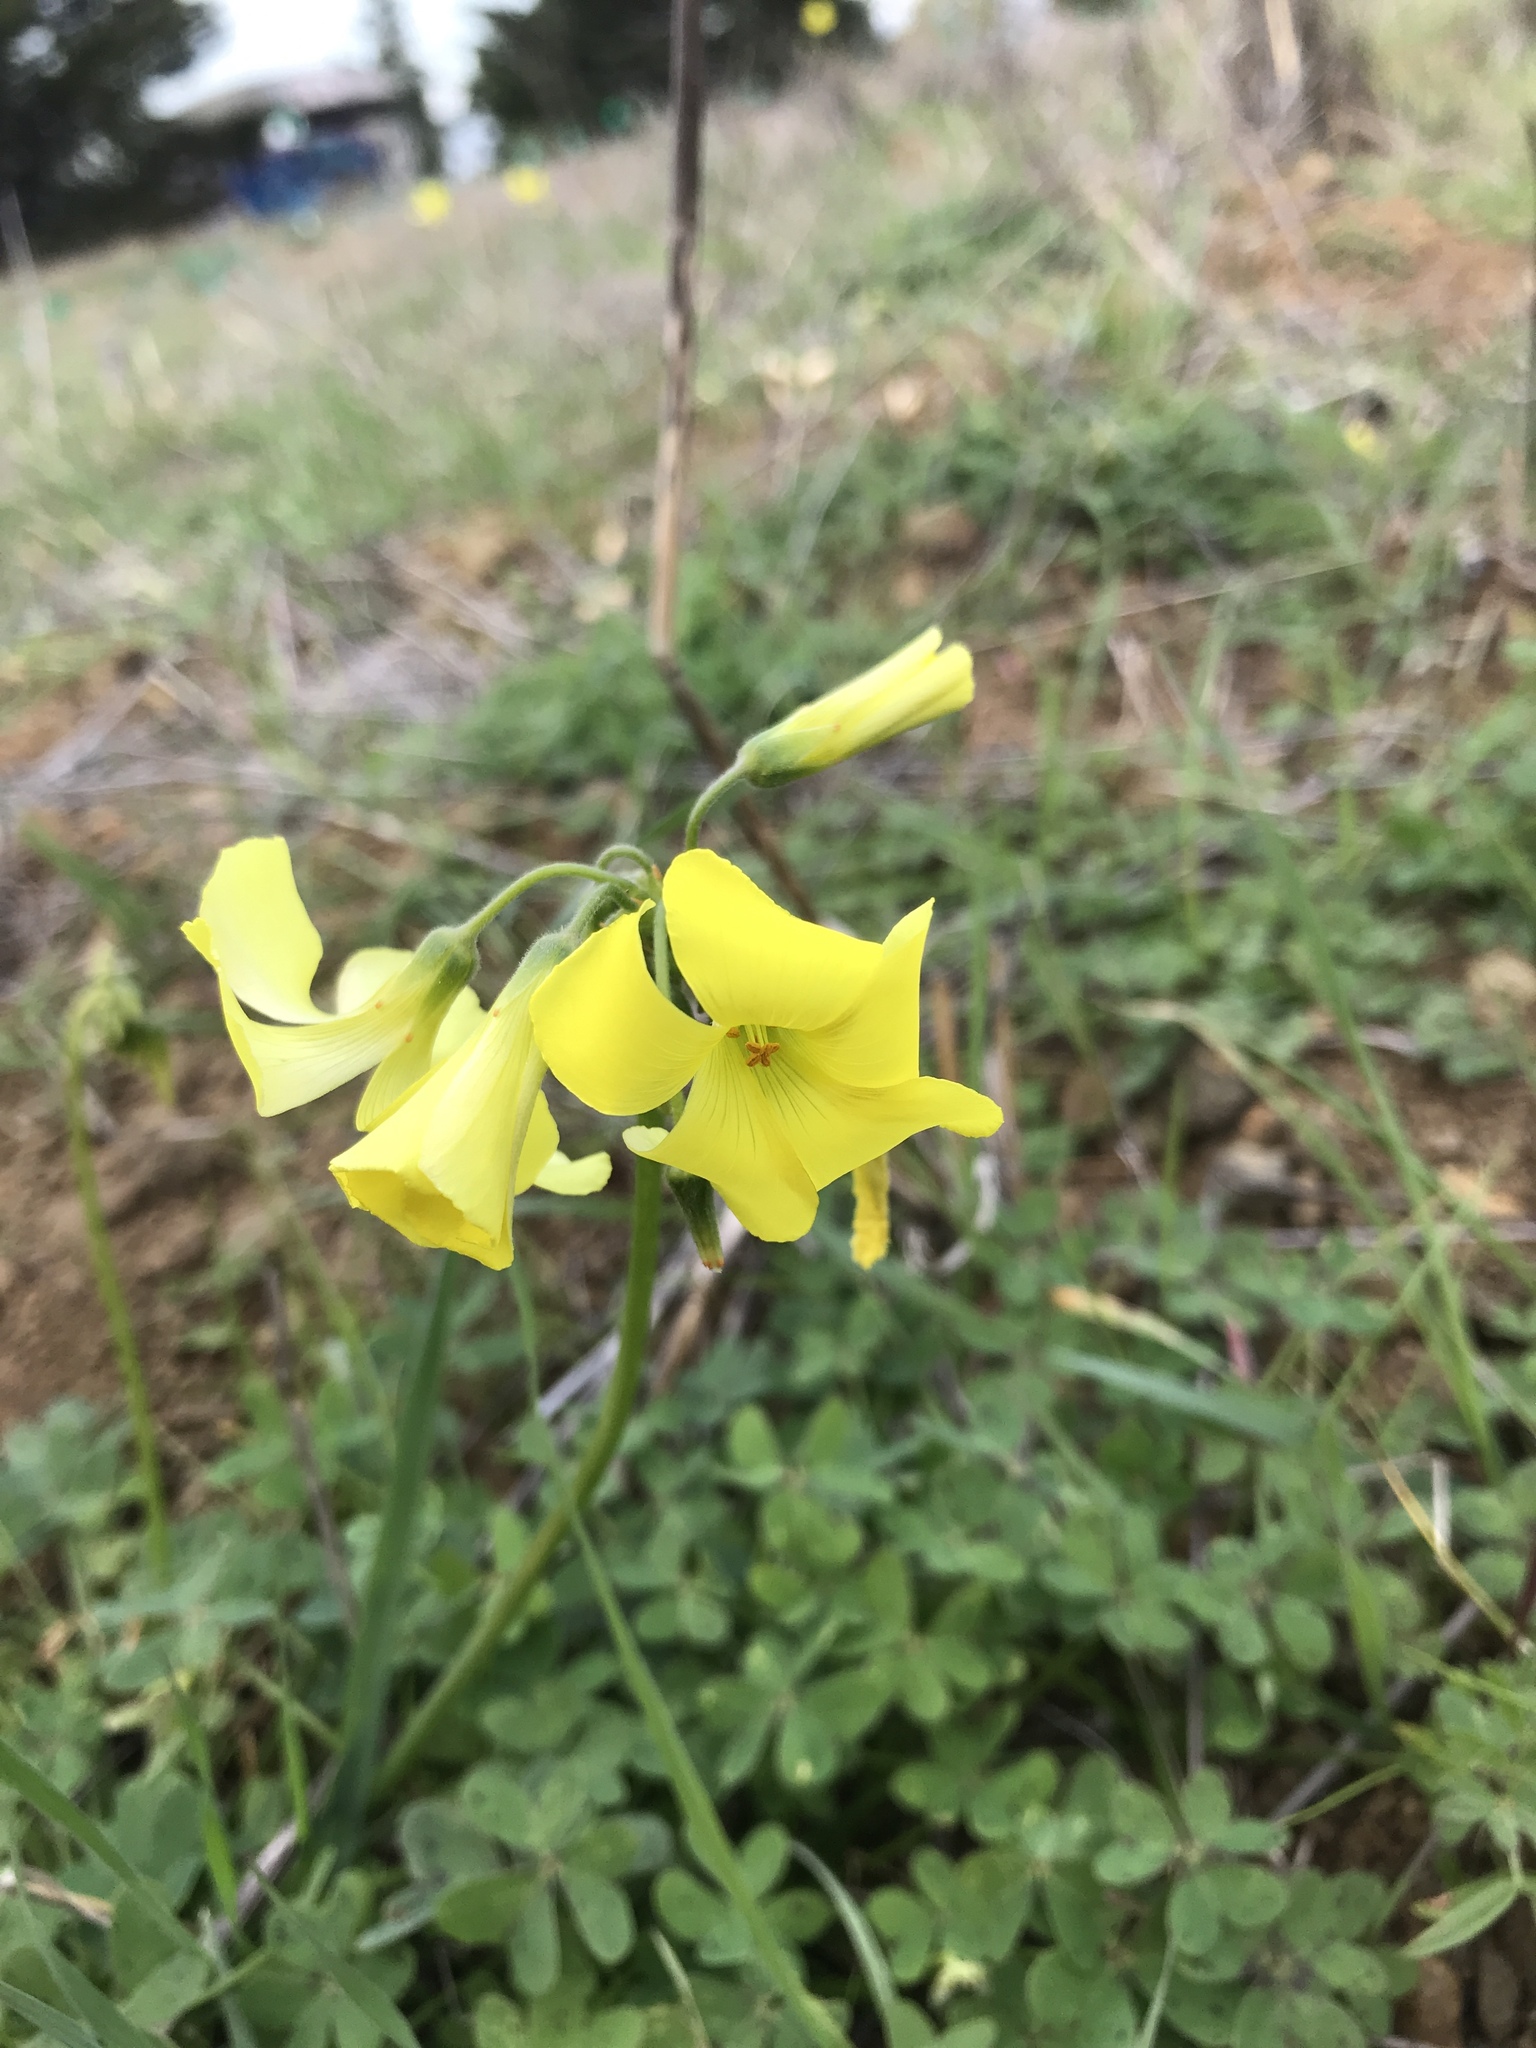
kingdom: Plantae
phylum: Tracheophyta
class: Magnoliopsida
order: Oxalidales
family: Oxalidaceae
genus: Oxalis
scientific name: Oxalis pes-caprae
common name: Bermuda-buttercup
